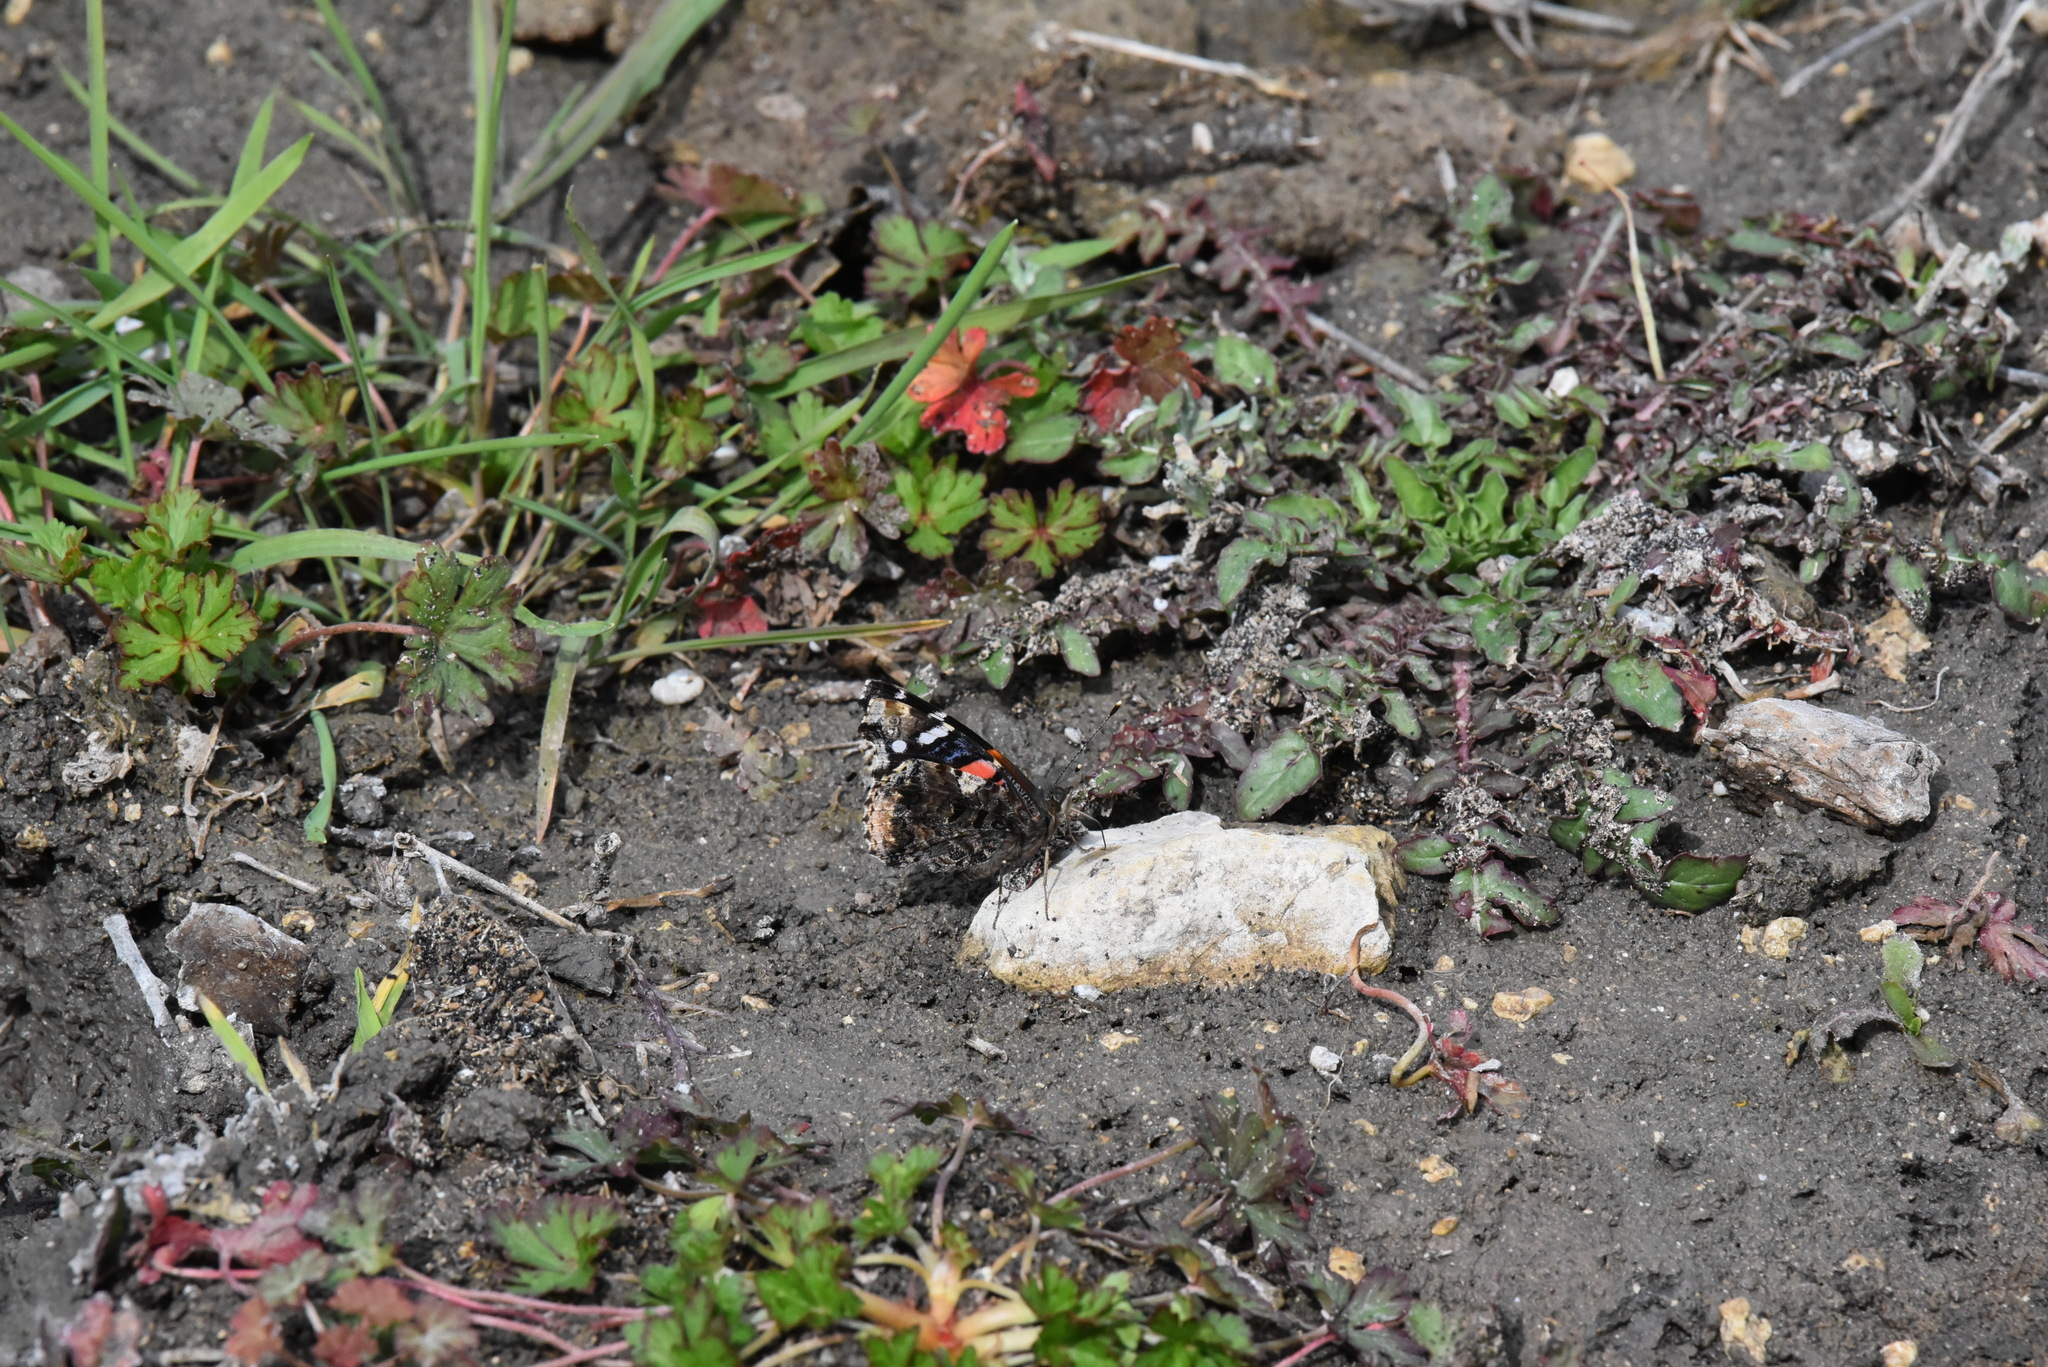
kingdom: Animalia
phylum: Arthropoda
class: Insecta
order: Lepidoptera
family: Nymphalidae
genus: Vanessa
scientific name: Vanessa atalanta
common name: Red admiral
